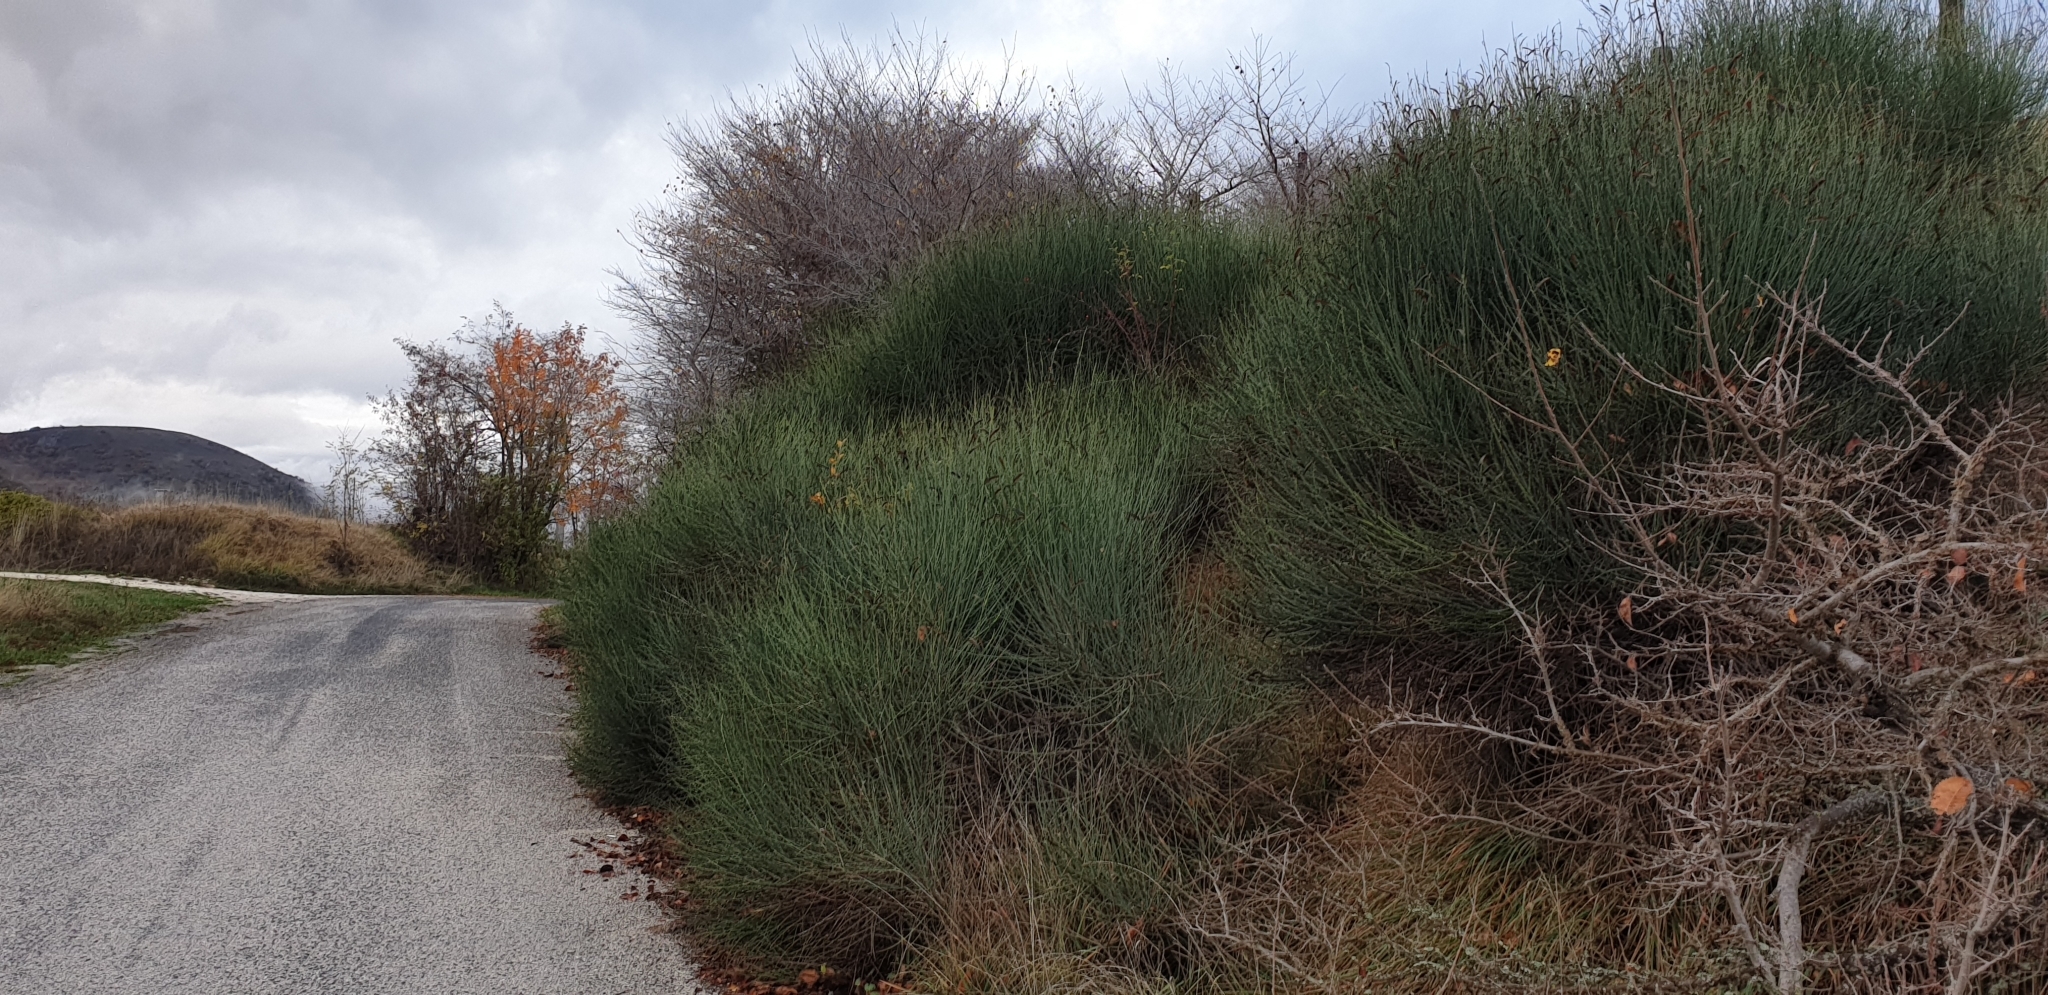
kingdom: Plantae
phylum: Tracheophyta
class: Magnoliopsida
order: Fabales
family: Fabaceae
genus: Spartium
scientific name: Spartium junceum
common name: Spanish broom
